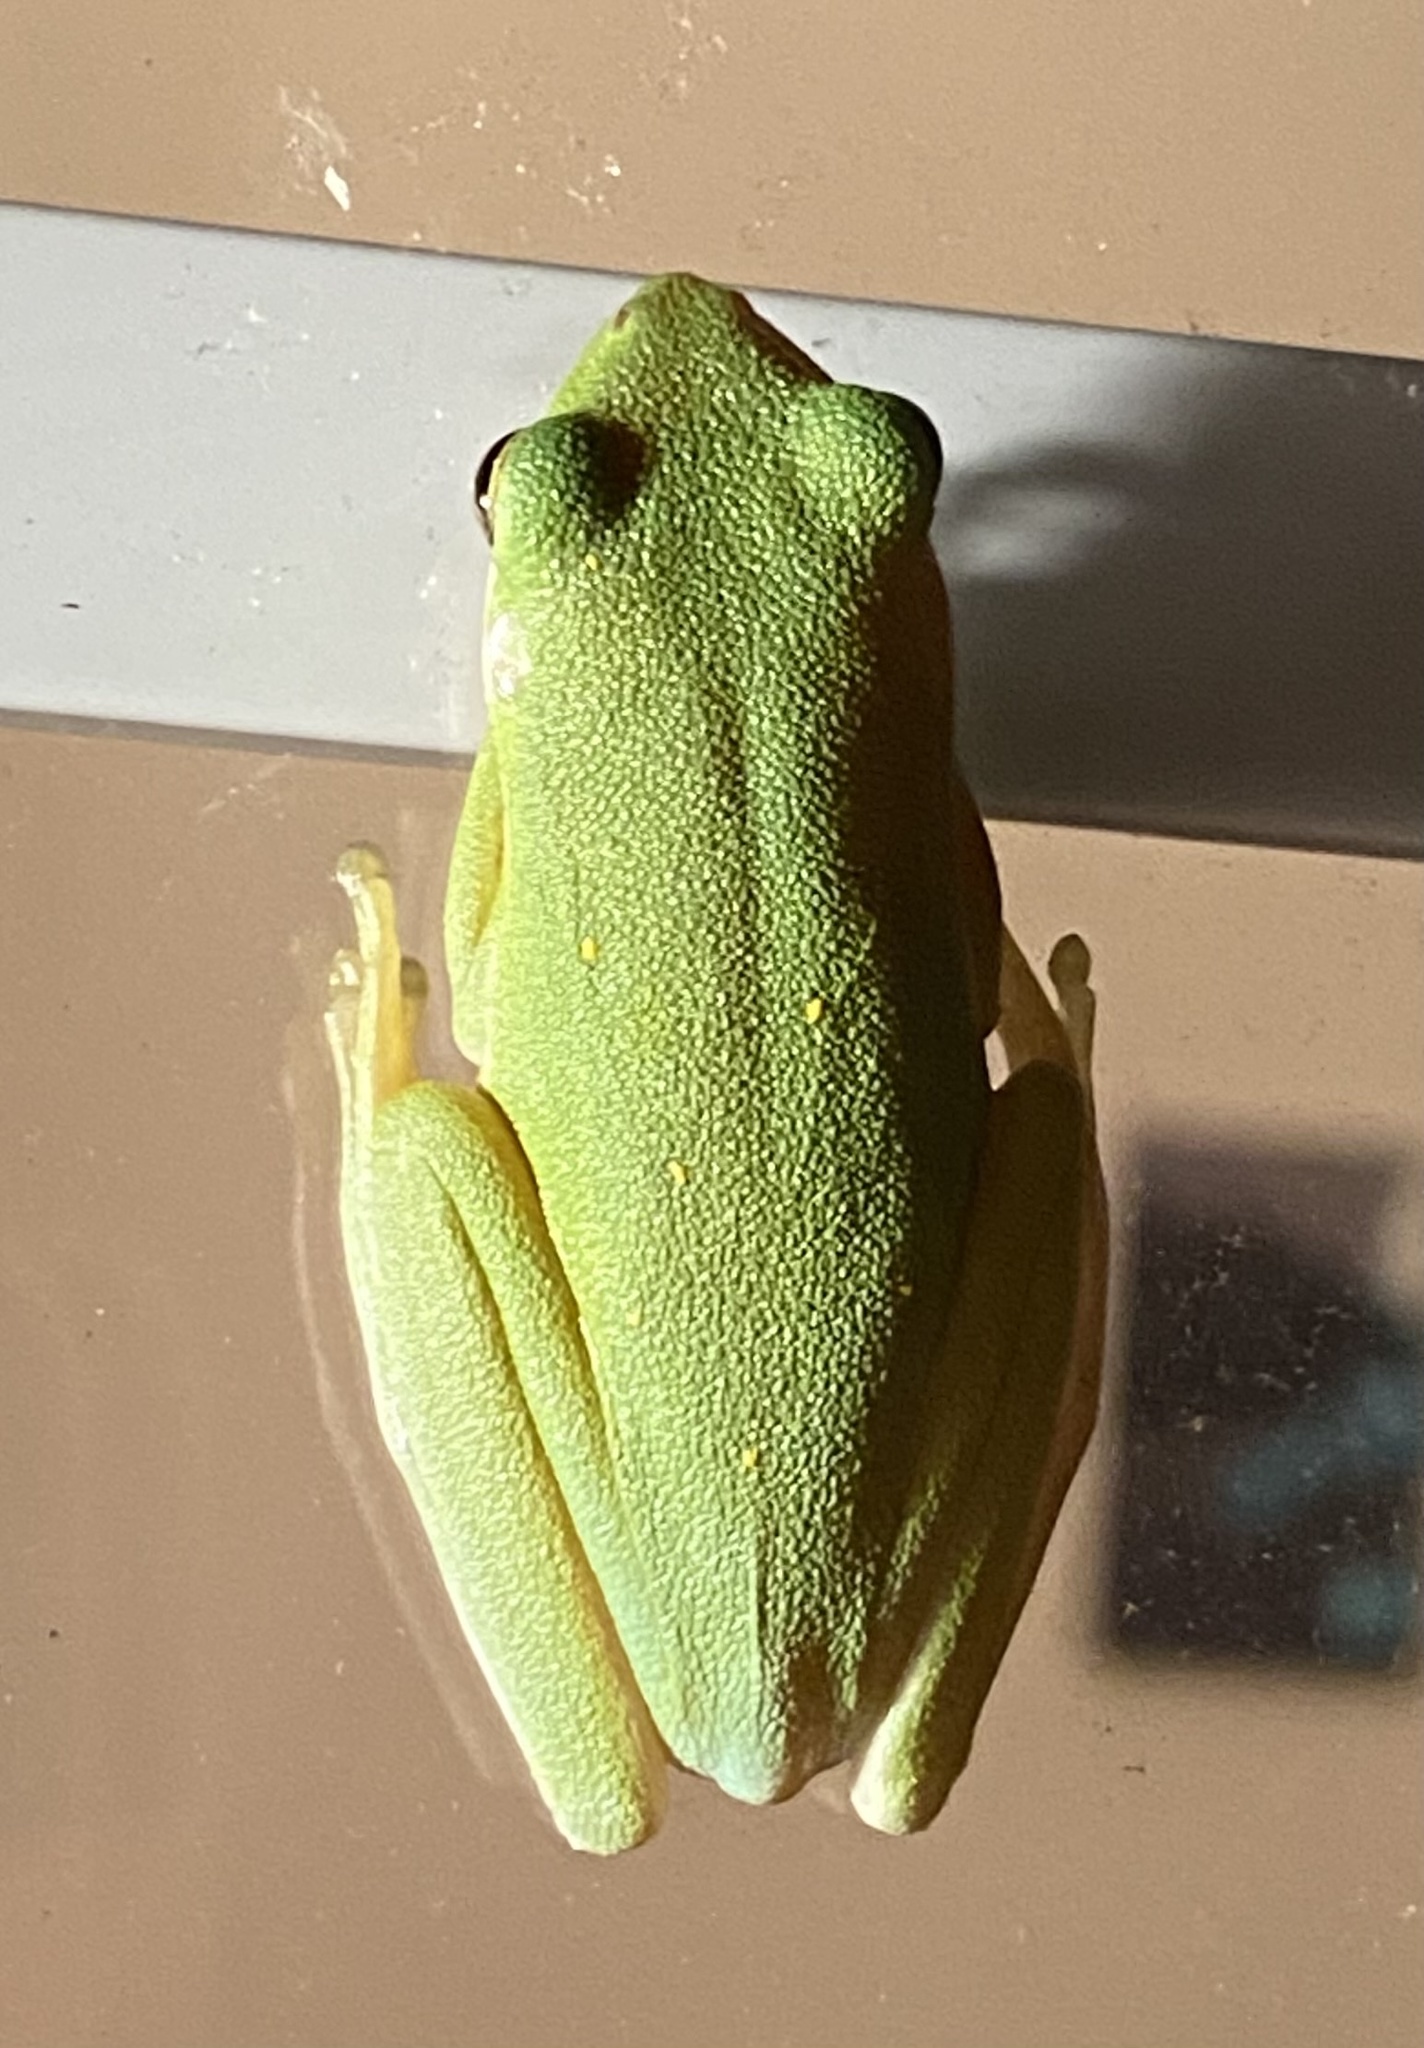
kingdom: Animalia
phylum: Chordata
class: Amphibia
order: Anura
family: Hylidae
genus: Dryophytes
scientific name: Dryophytes cinereus
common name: Green treefrog
